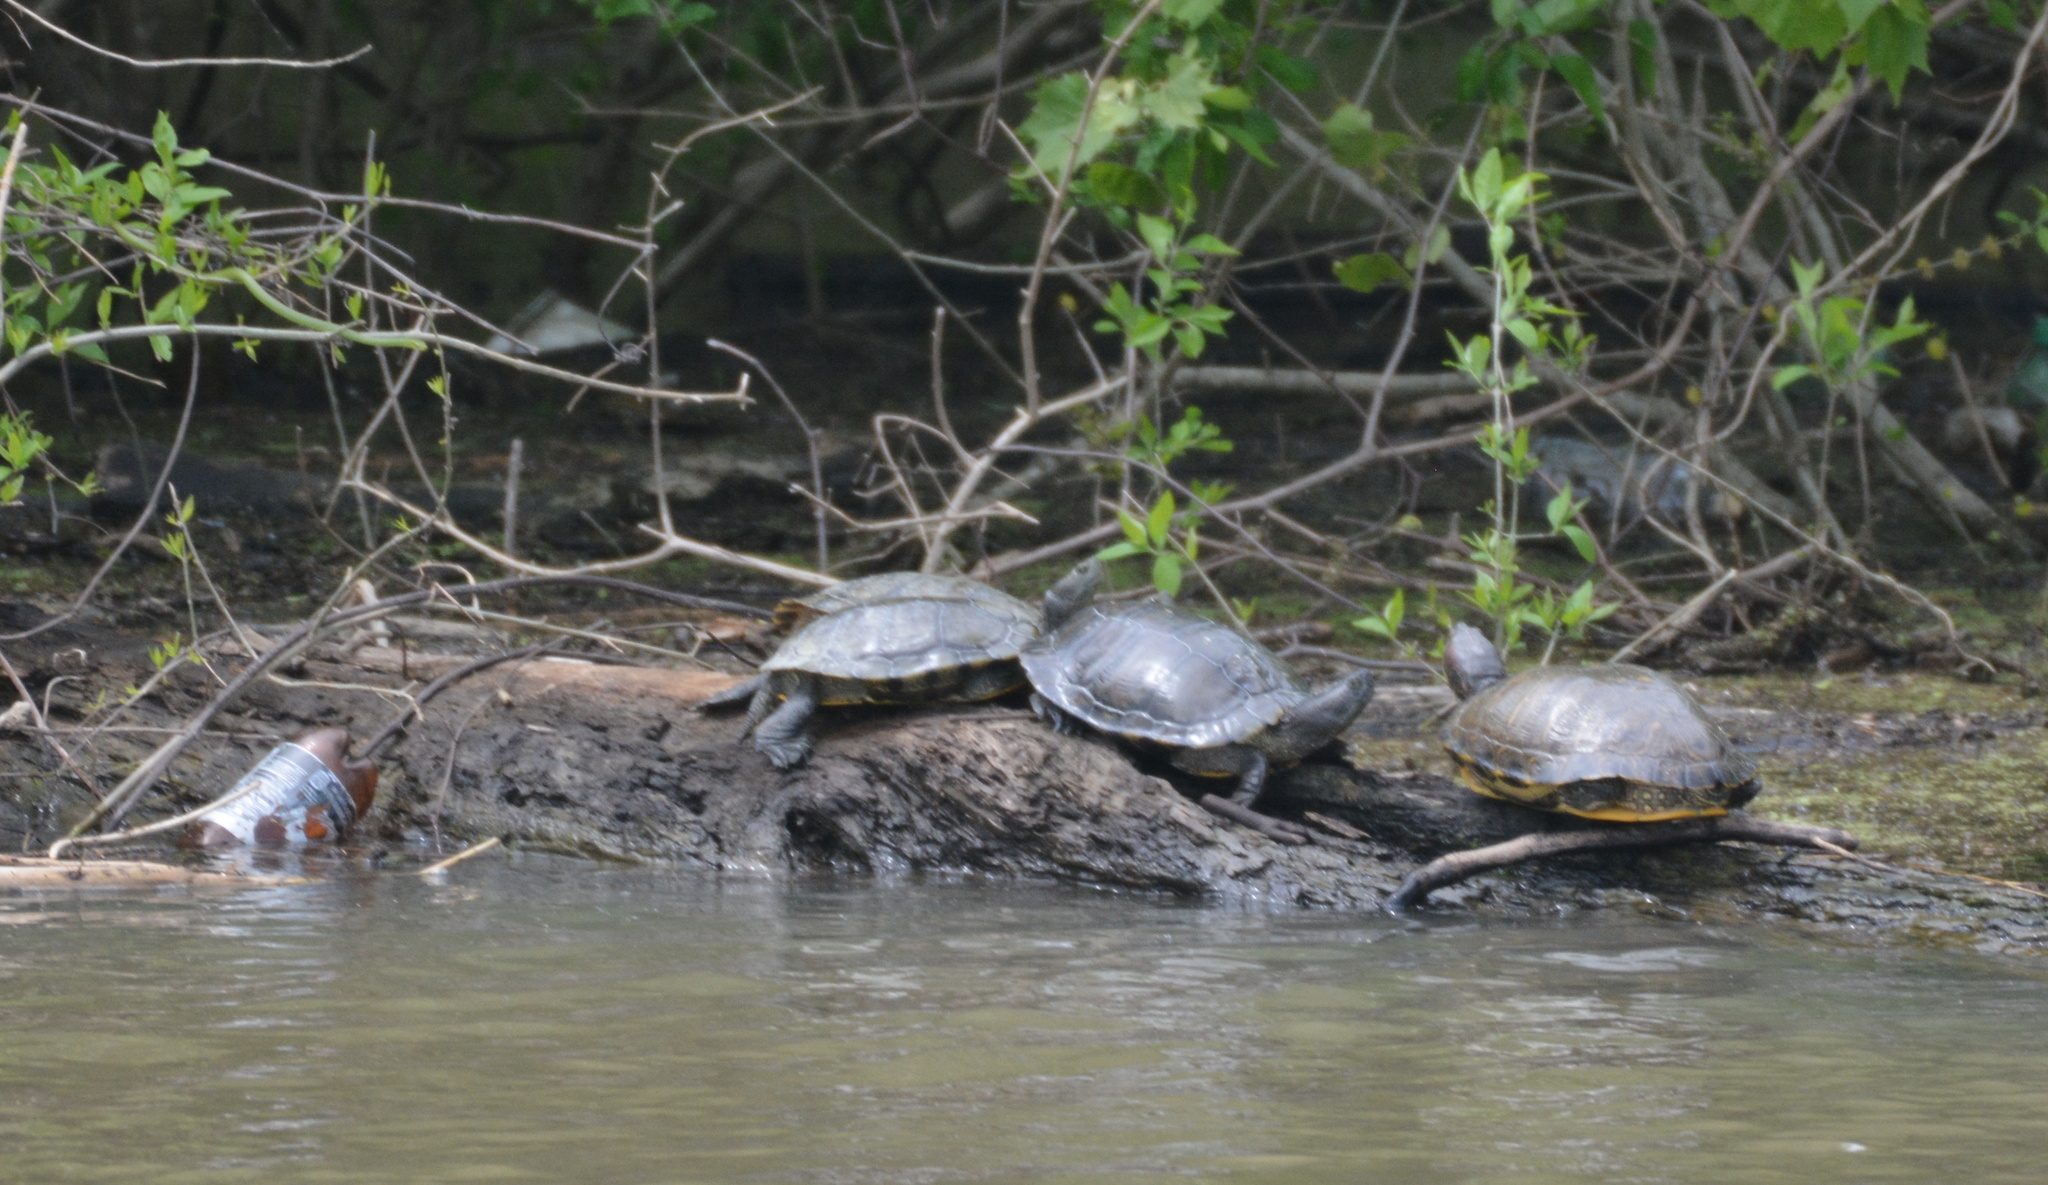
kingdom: Animalia
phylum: Chordata
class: Testudines
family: Emydidae
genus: Trachemys
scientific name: Trachemys scripta
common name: Slider
